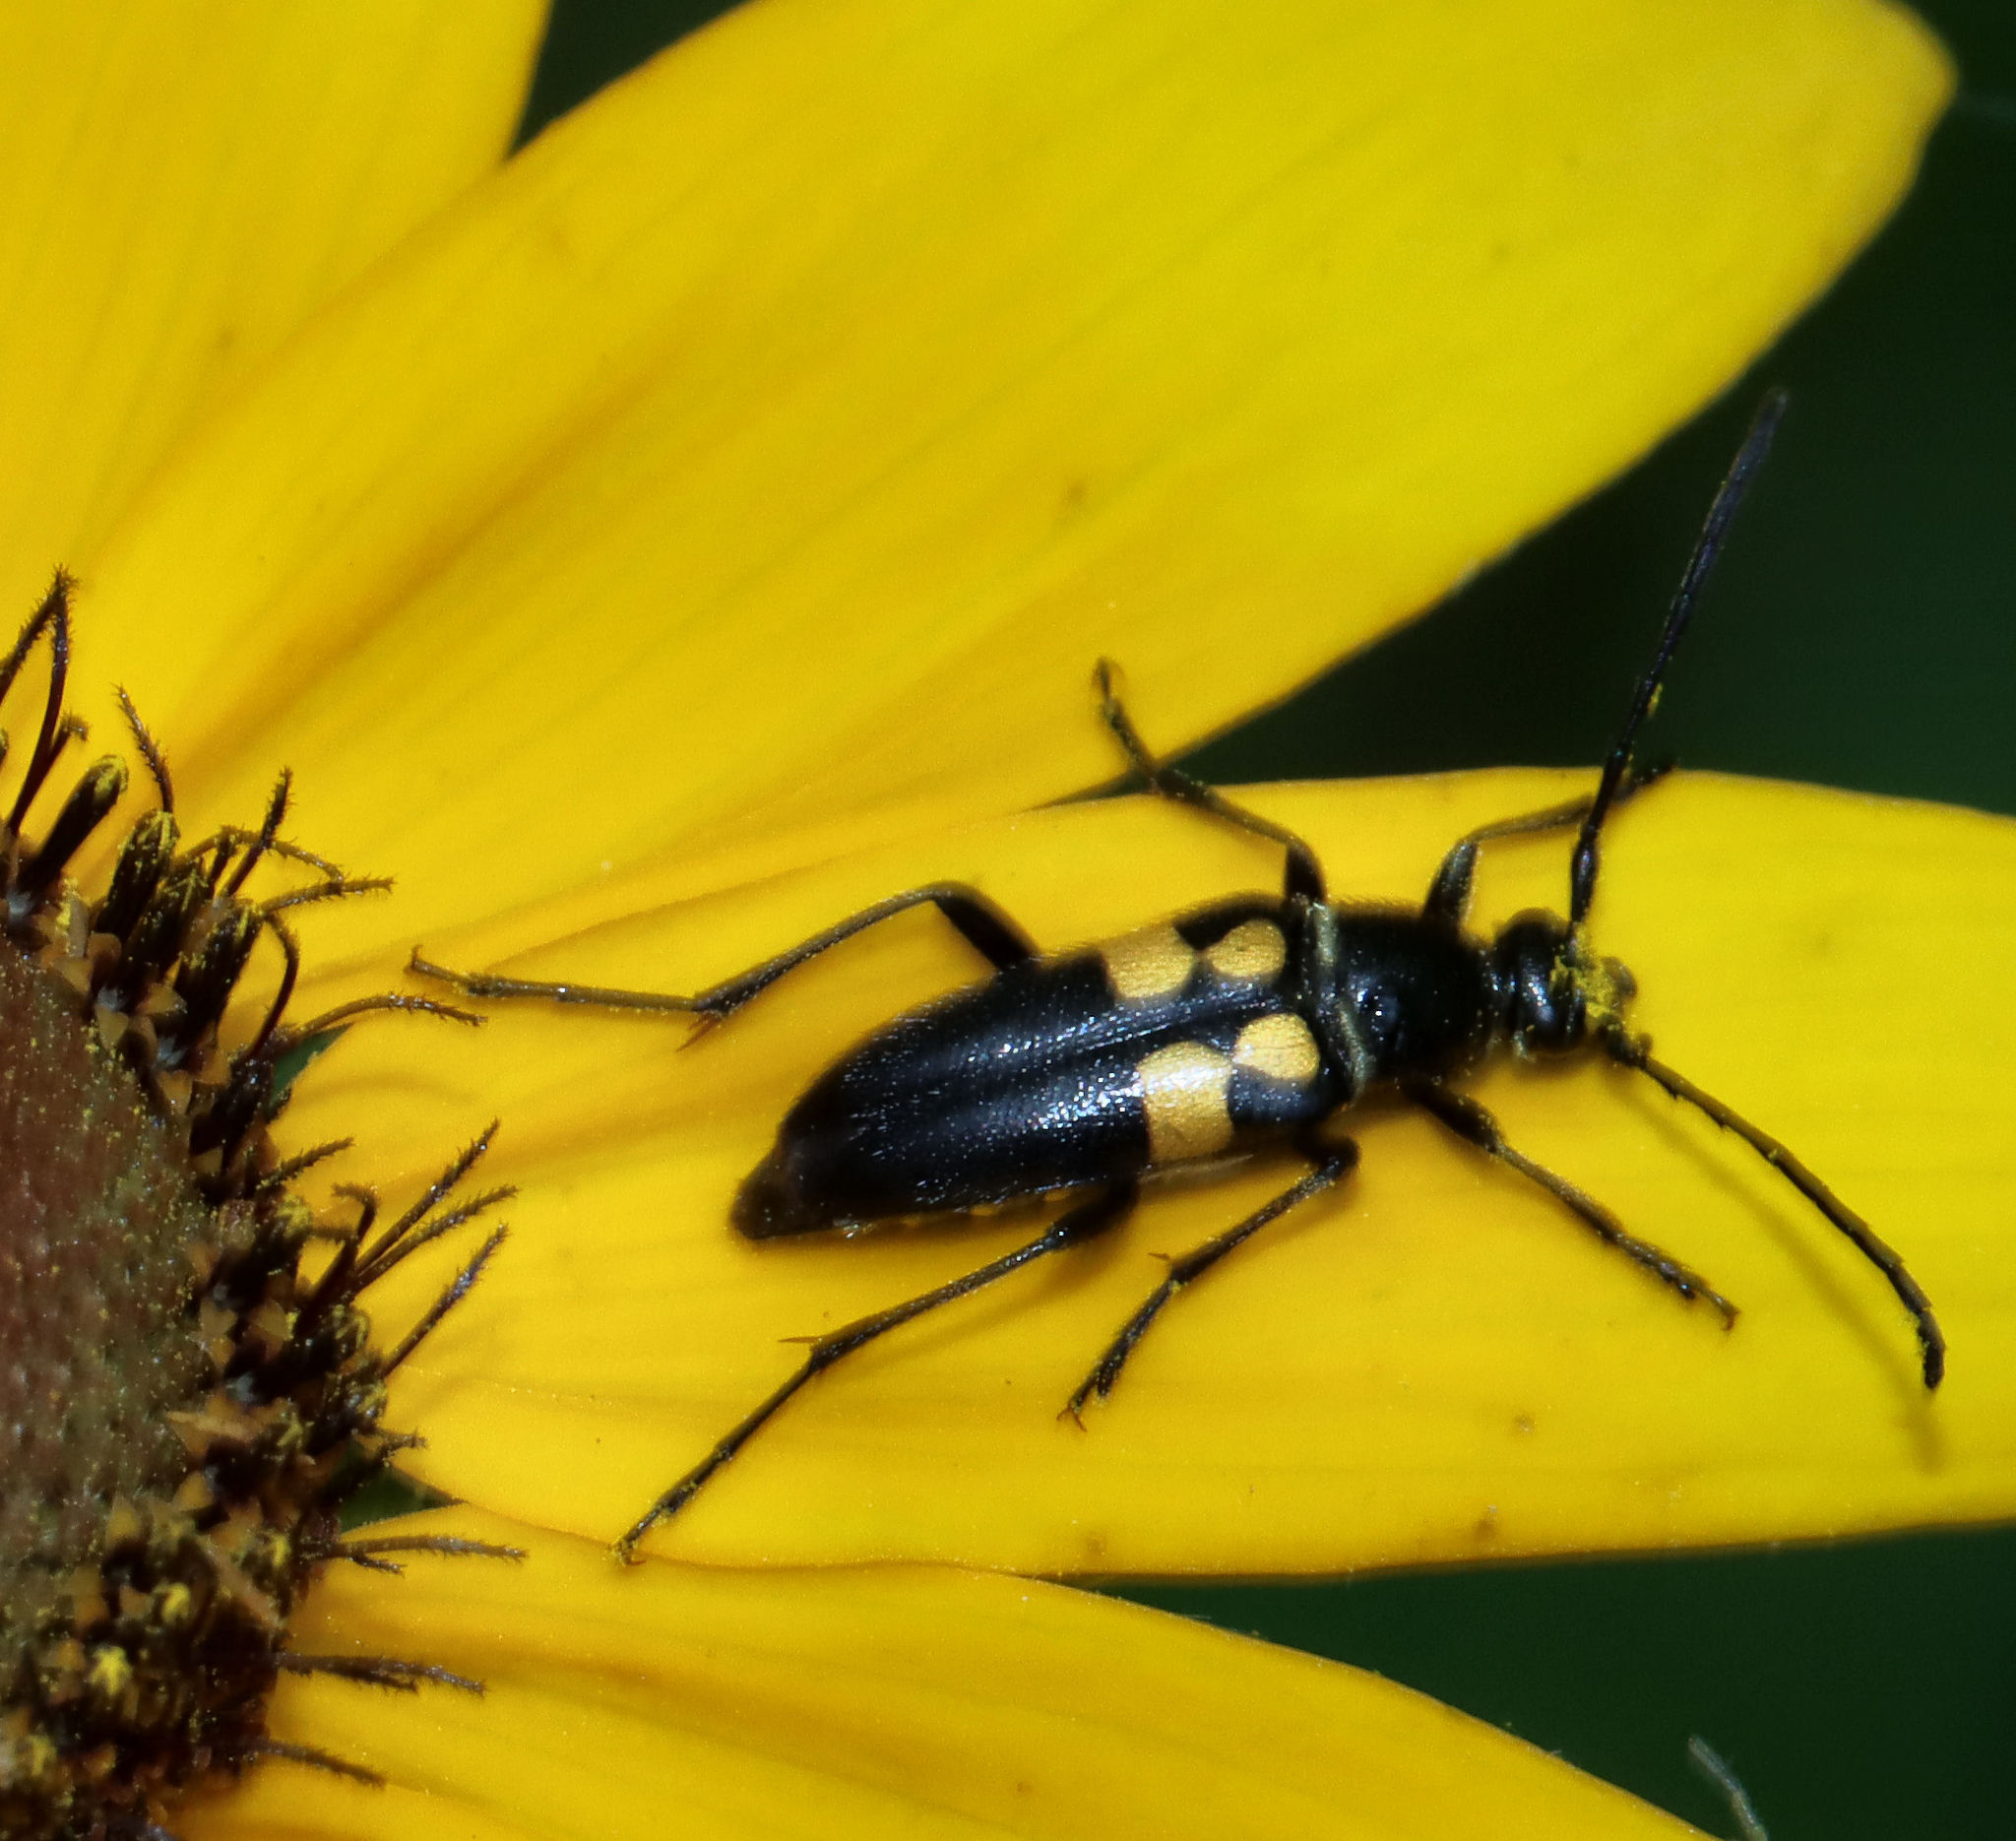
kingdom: Animalia
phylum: Arthropoda
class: Insecta
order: Coleoptera
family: Cerambycidae
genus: Typocerus
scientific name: Typocerus lunulatus
